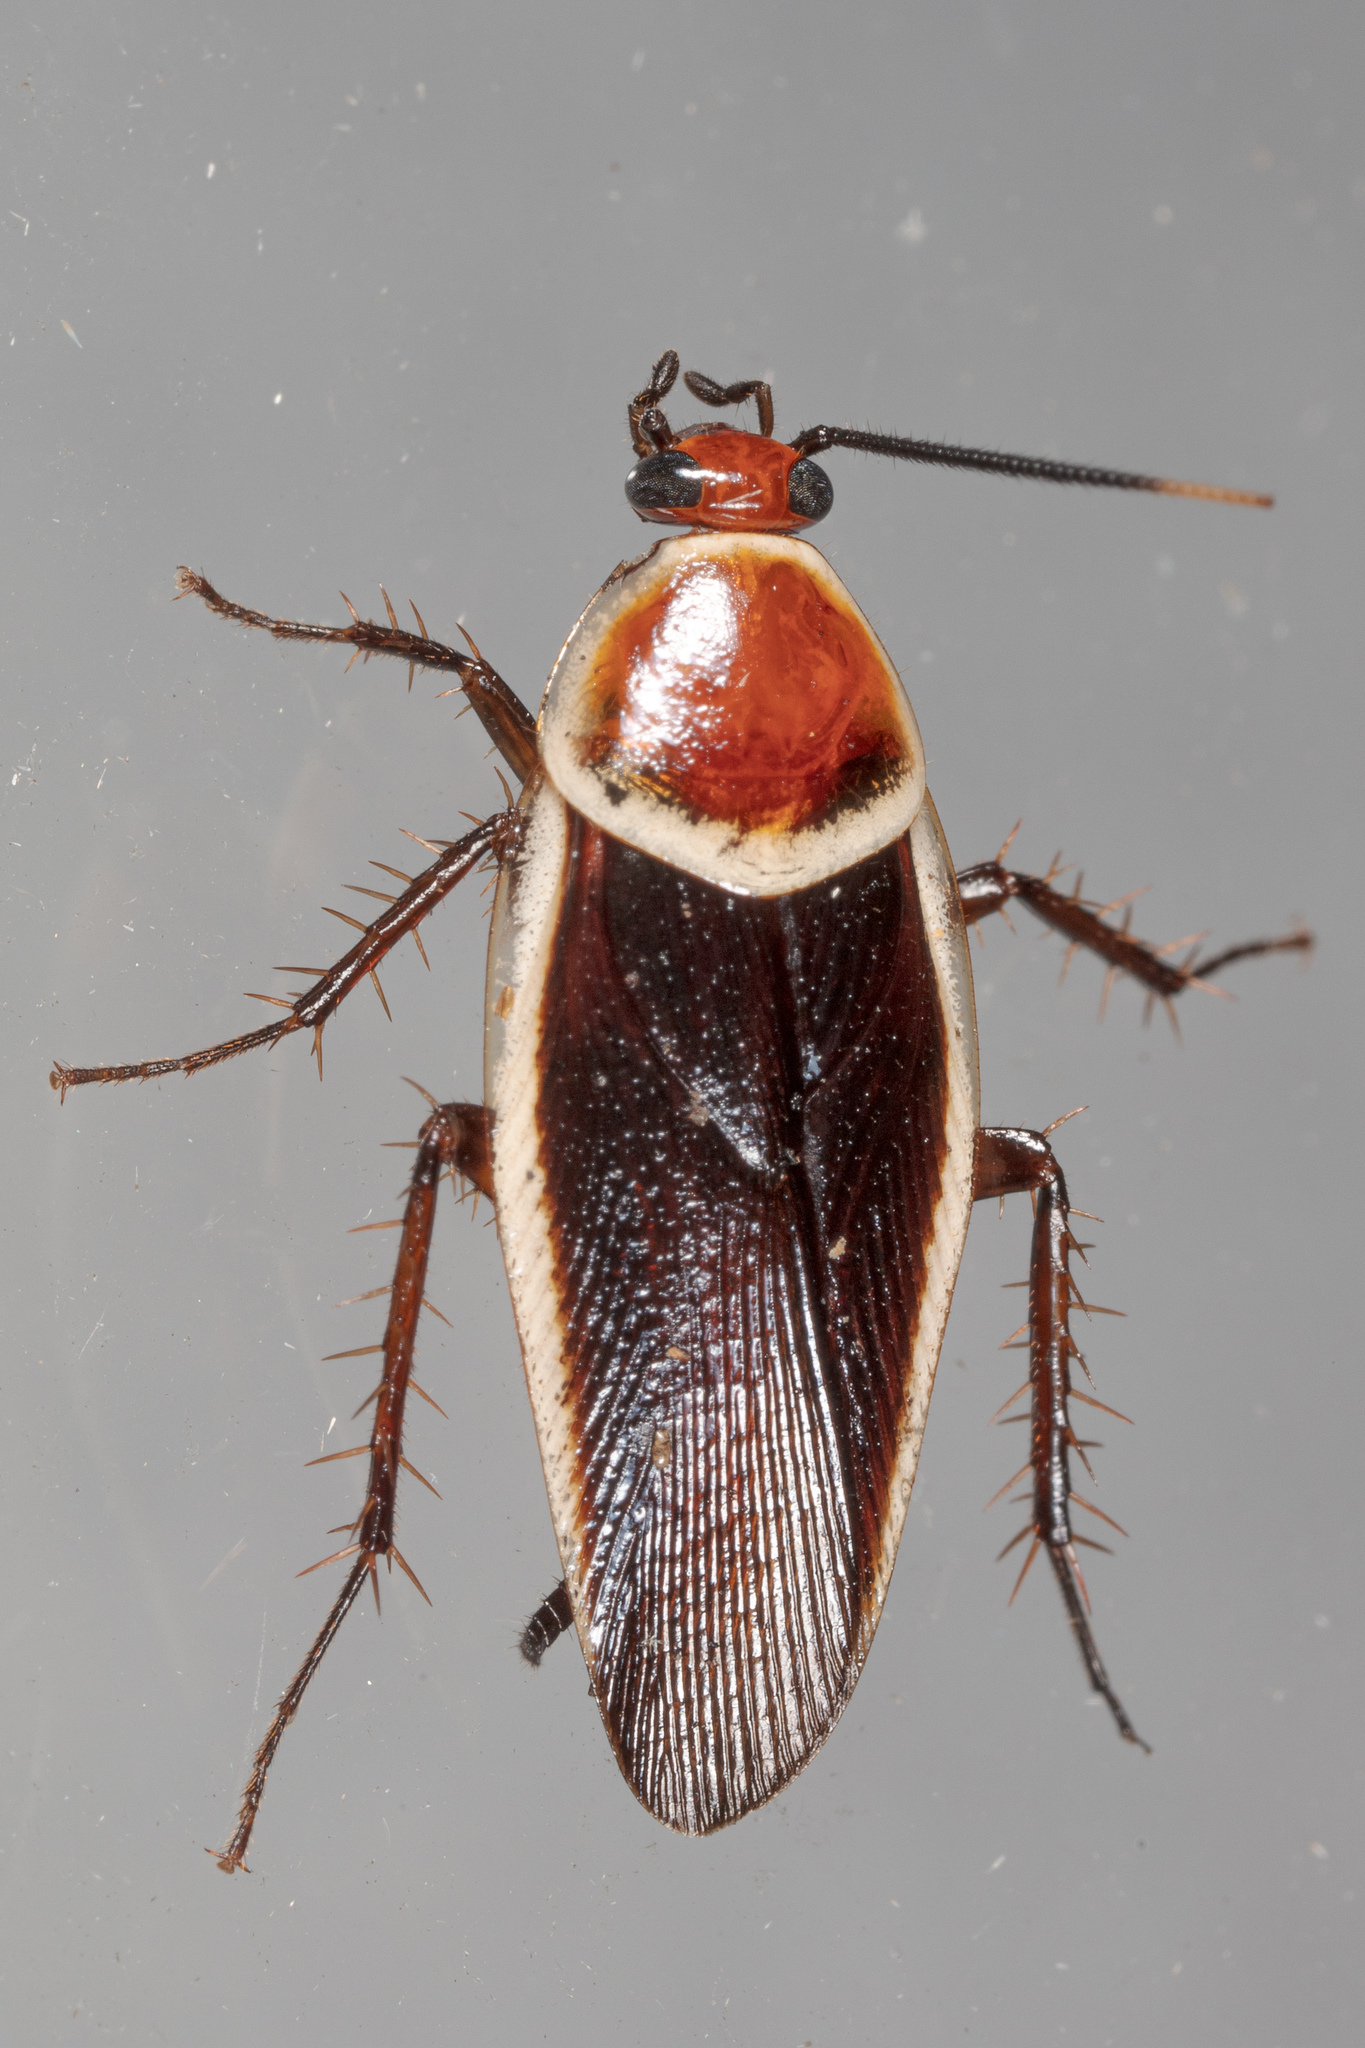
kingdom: Animalia
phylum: Arthropoda
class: Insecta
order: Blattodea
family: Ectobiidae
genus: Pseudomops
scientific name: Pseudomops septentrionalis
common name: Pale-bordered field cockroach
